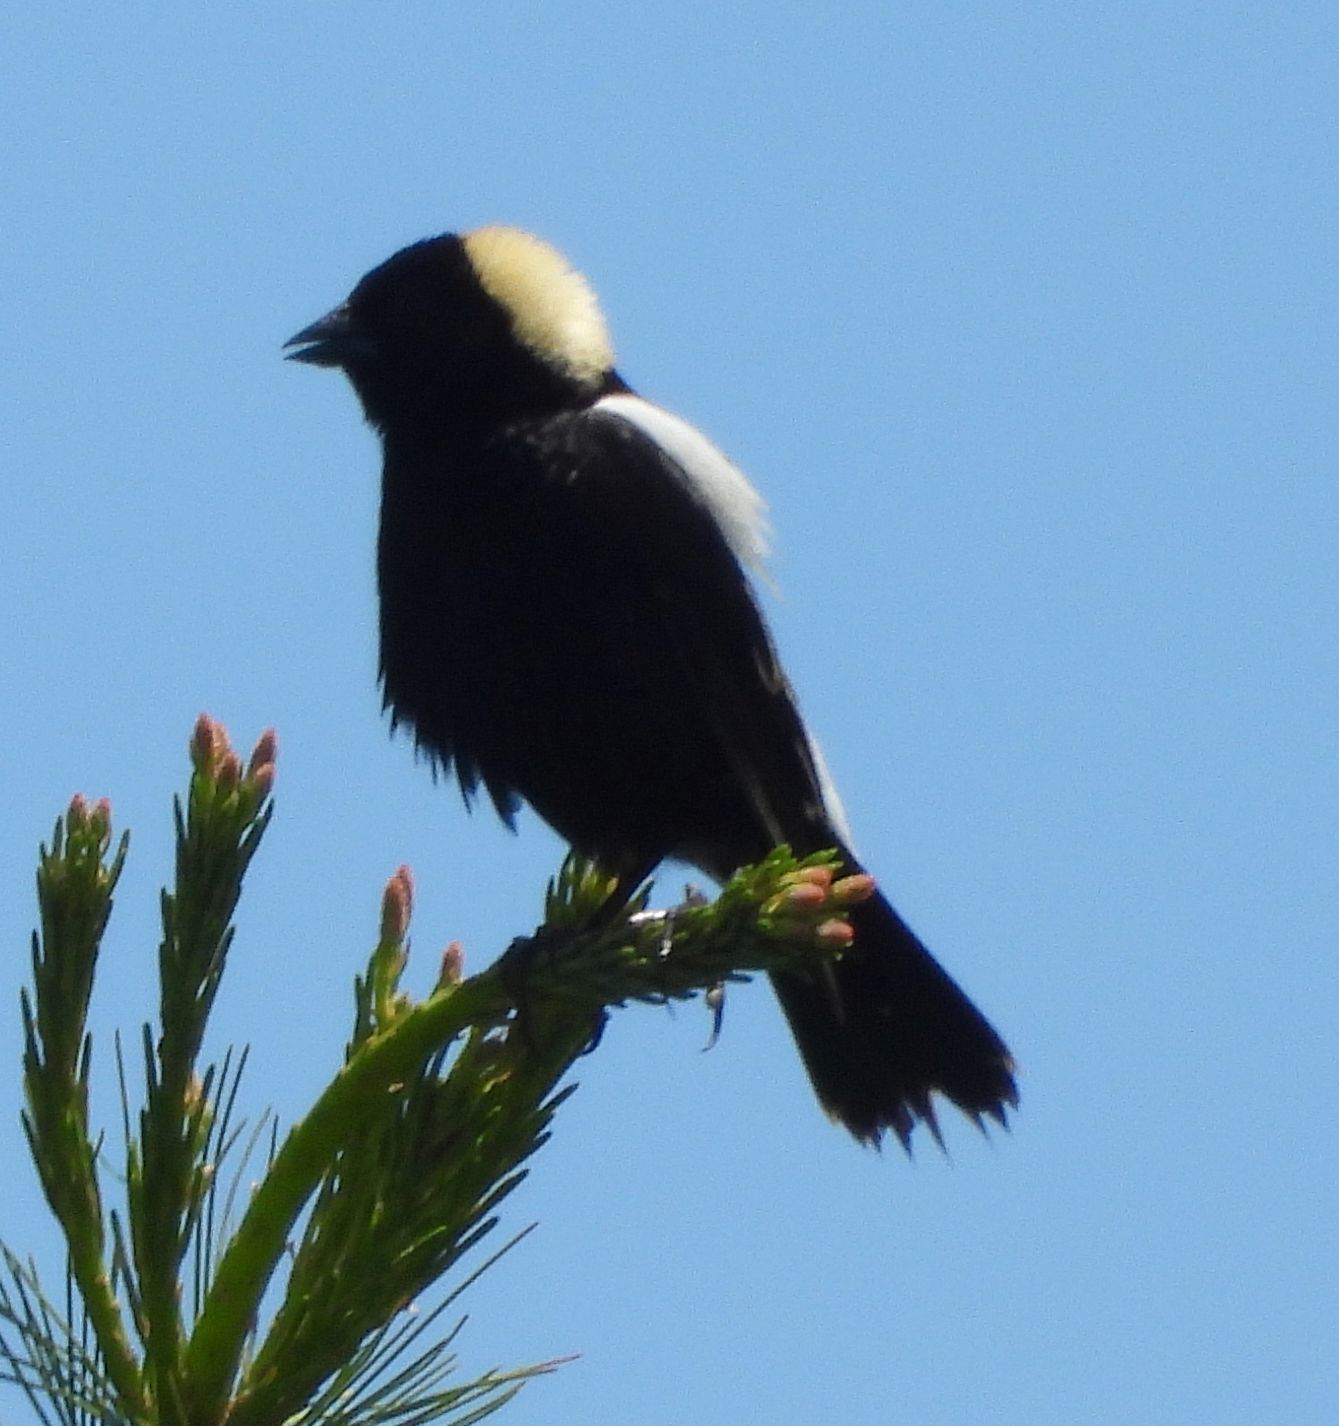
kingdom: Animalia
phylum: Chordata
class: Aves
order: Passeriformes
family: Icteridae
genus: Dolichonyx
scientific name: Dolichonyx oryzivorus
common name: Bobolink
